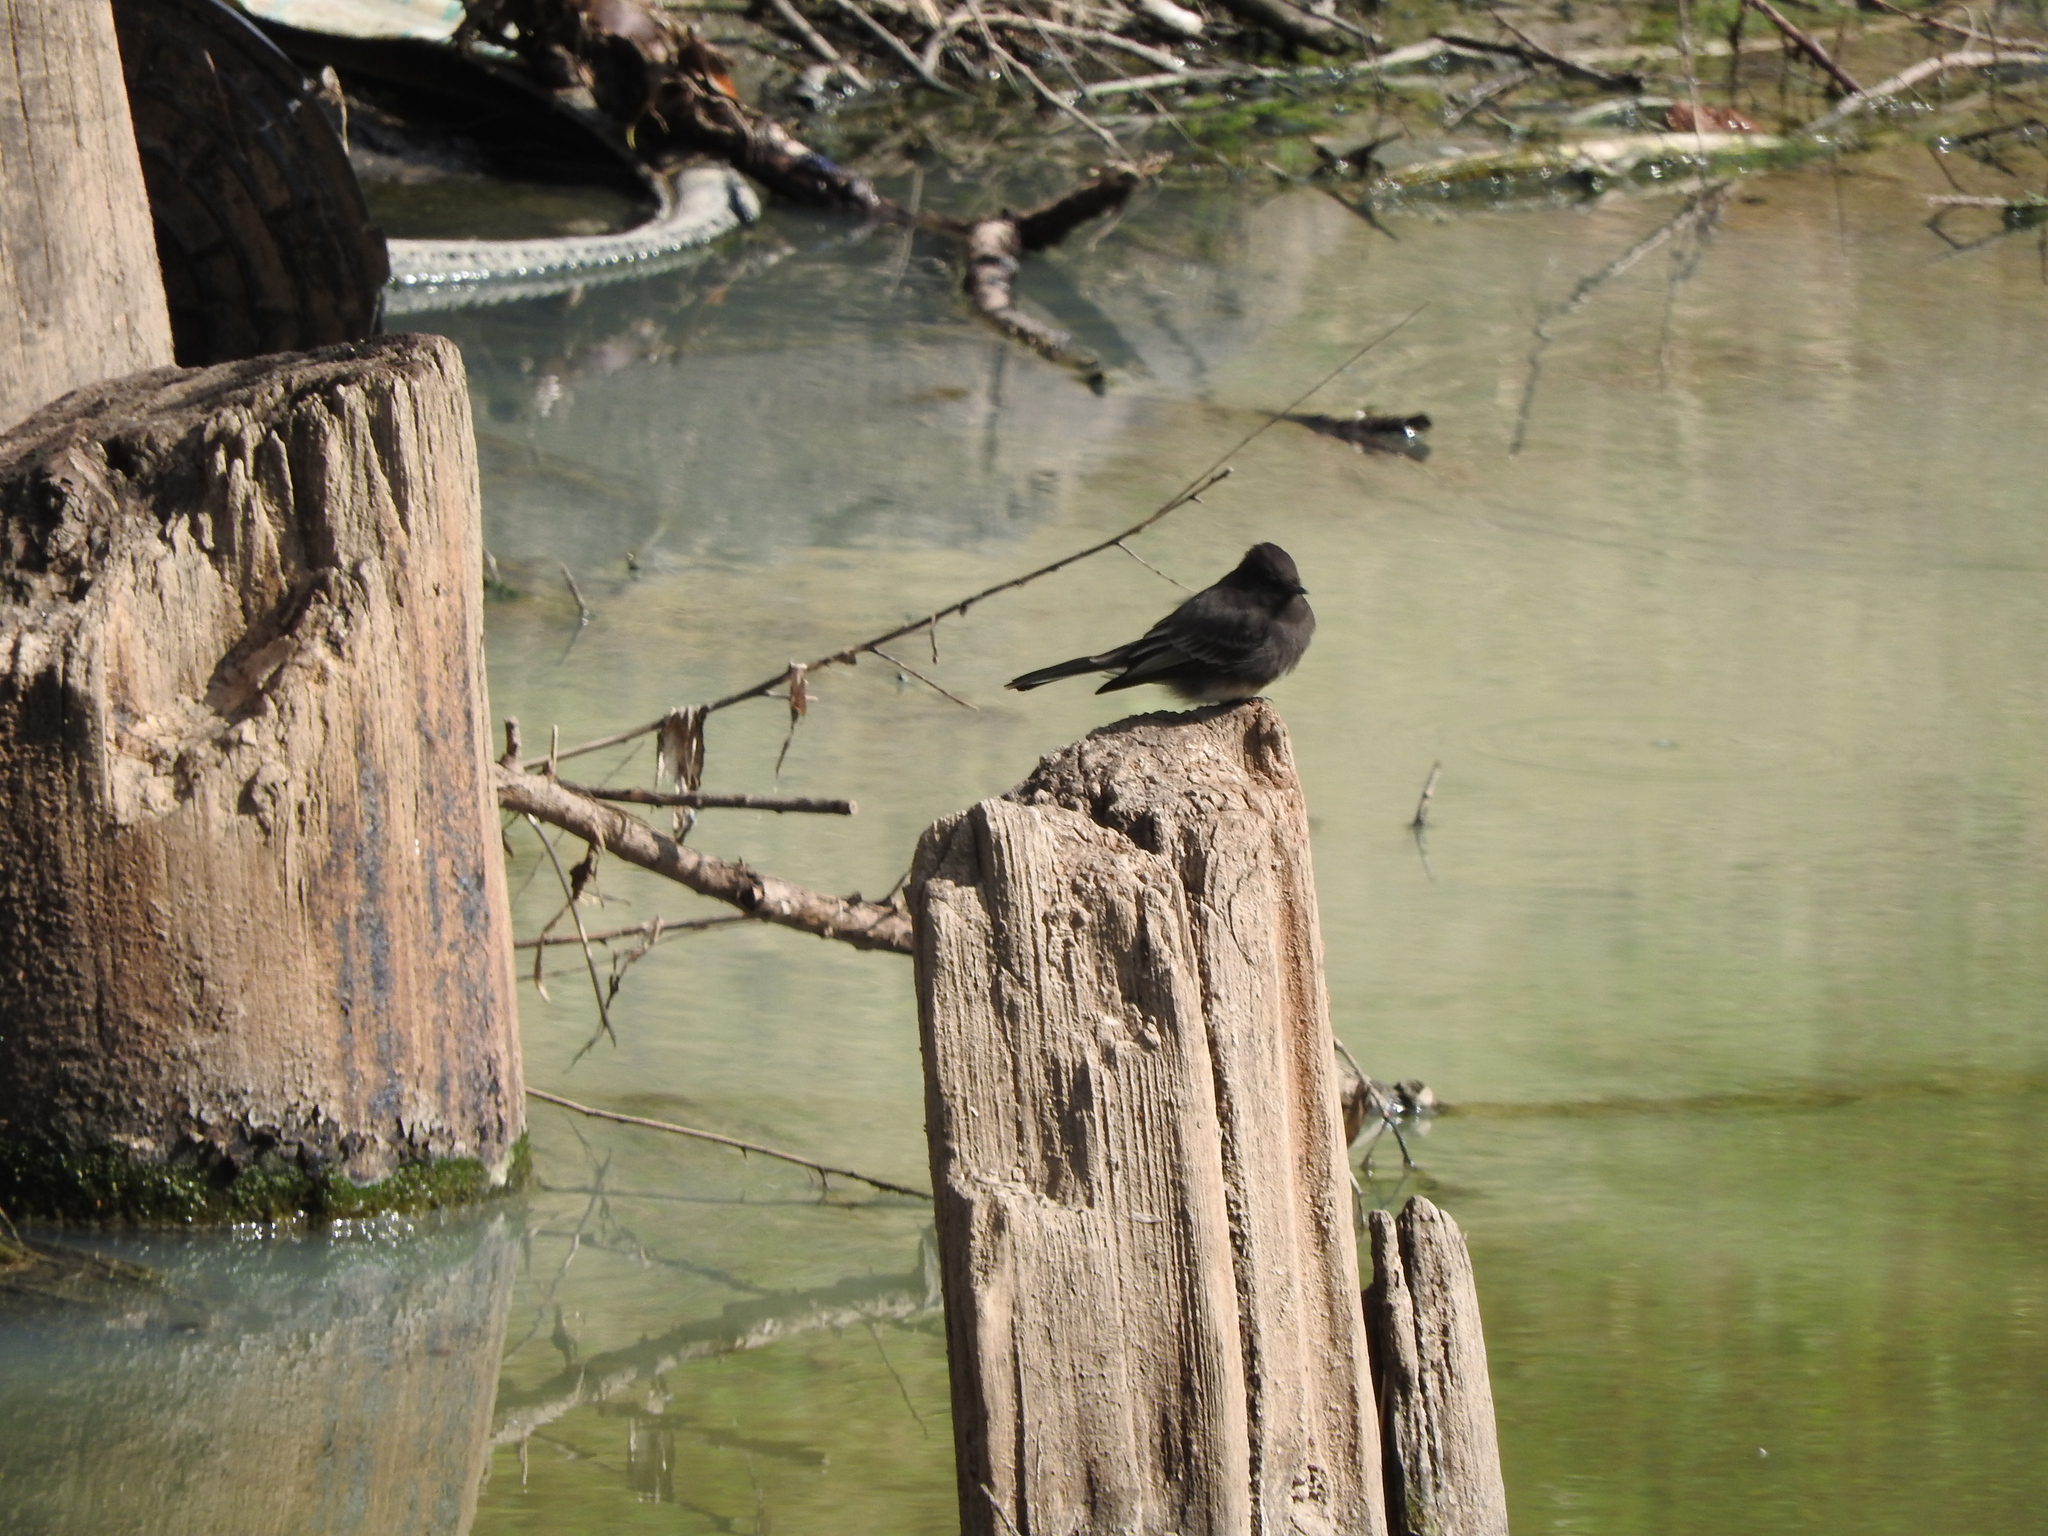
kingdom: Animalia
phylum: Chordata
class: Aves
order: Passeriformes
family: Tyrannidae
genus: Sayornis
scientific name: Sayornis nigricans
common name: Black phoebe
